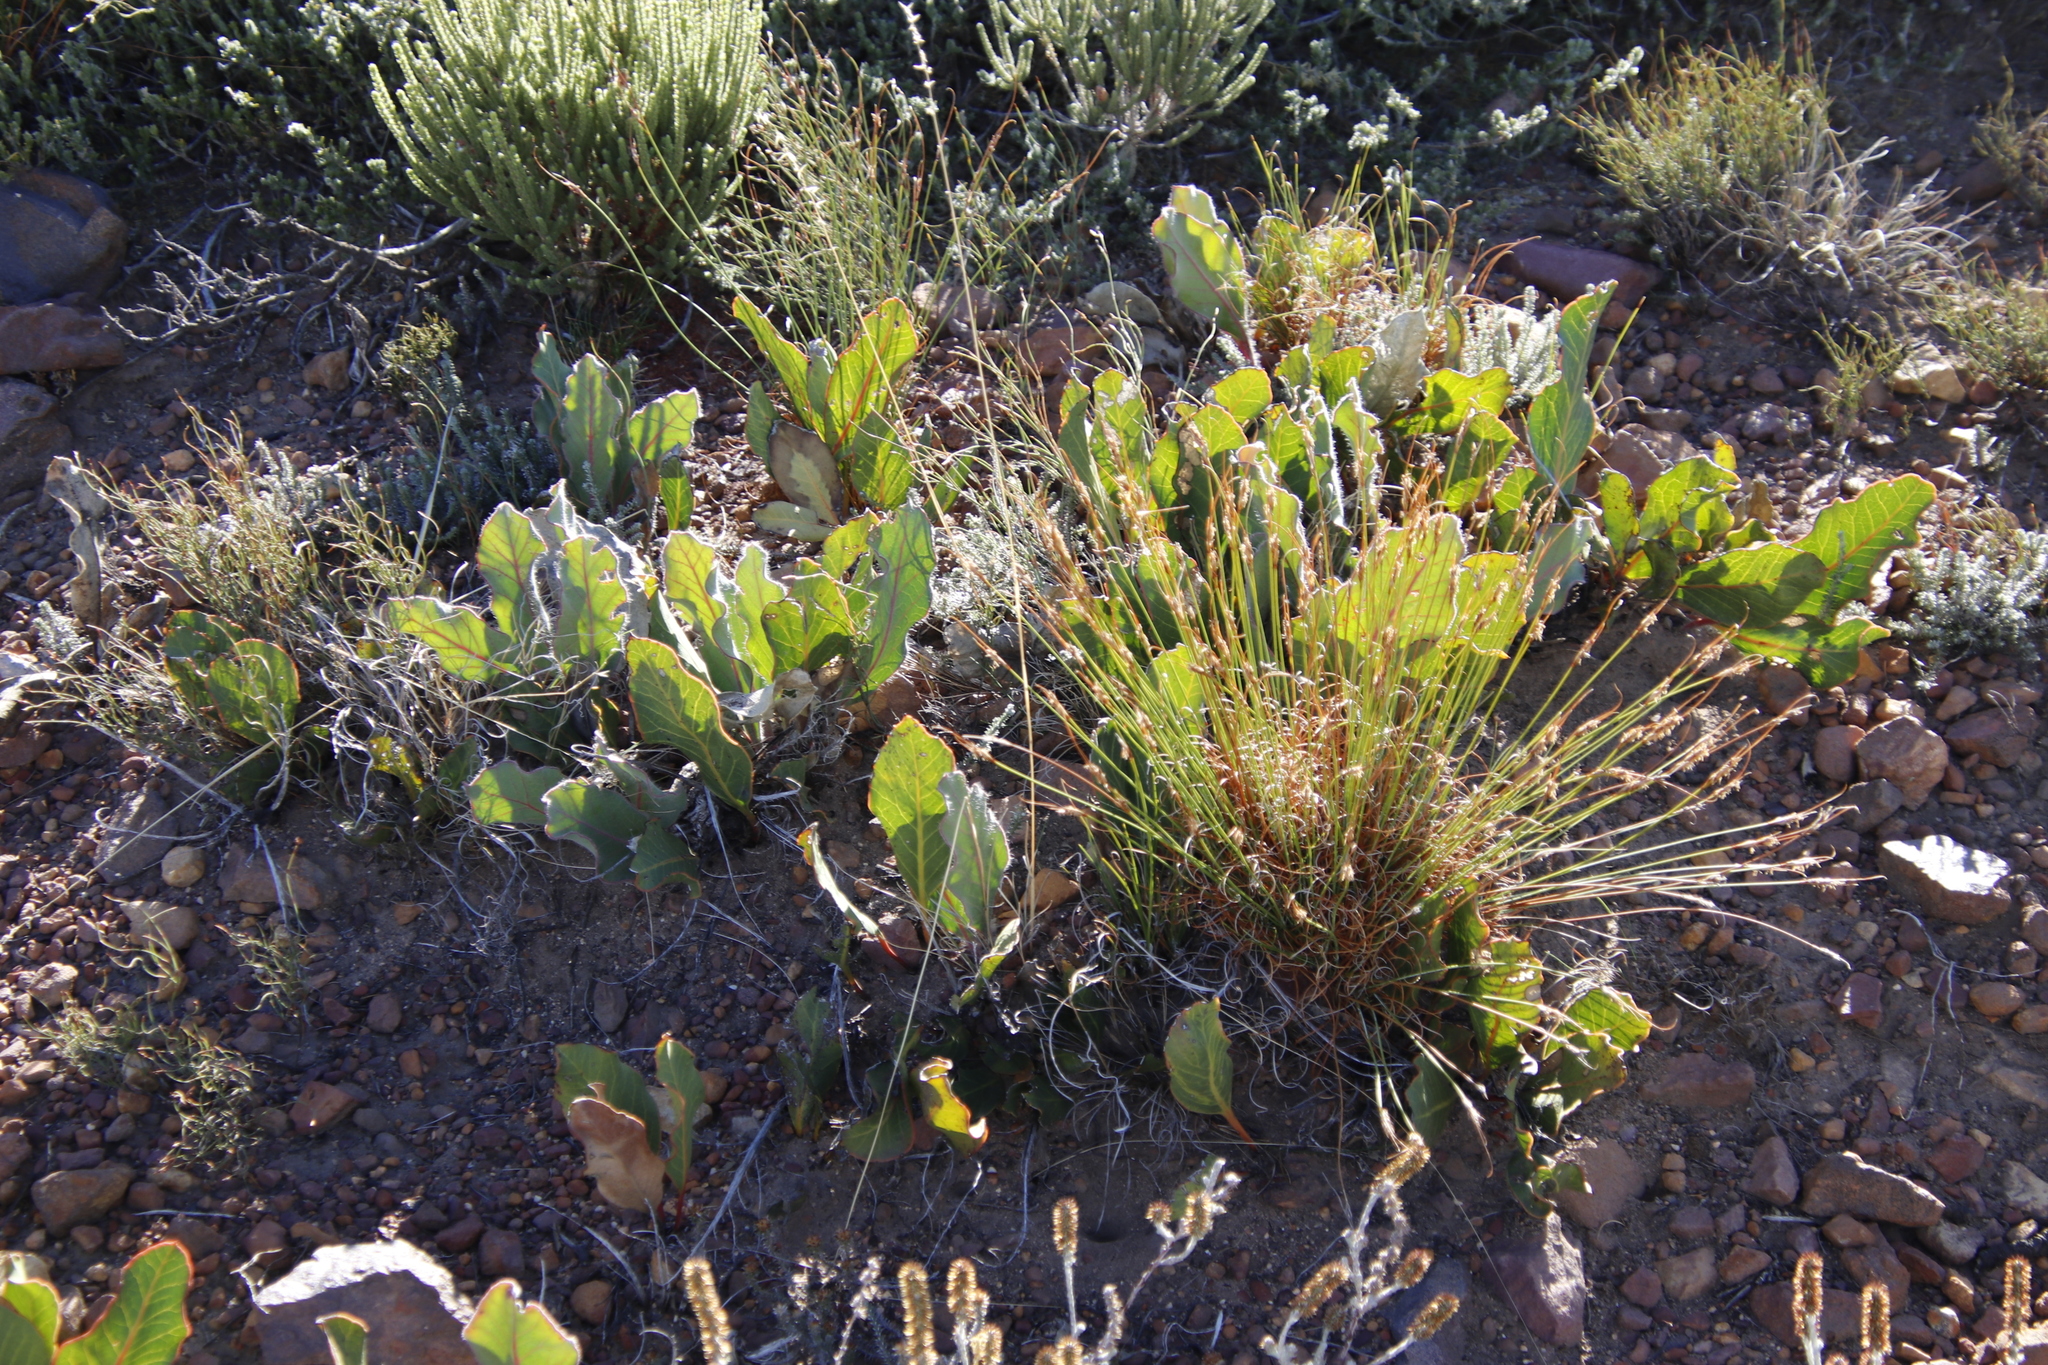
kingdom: Plantae
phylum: Tracheophyta
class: Magnoliopsida
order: Proteales
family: Proteaceae
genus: Protea
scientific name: Protea scolopendriifolia
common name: Harts-tongue-fern sugarbush
